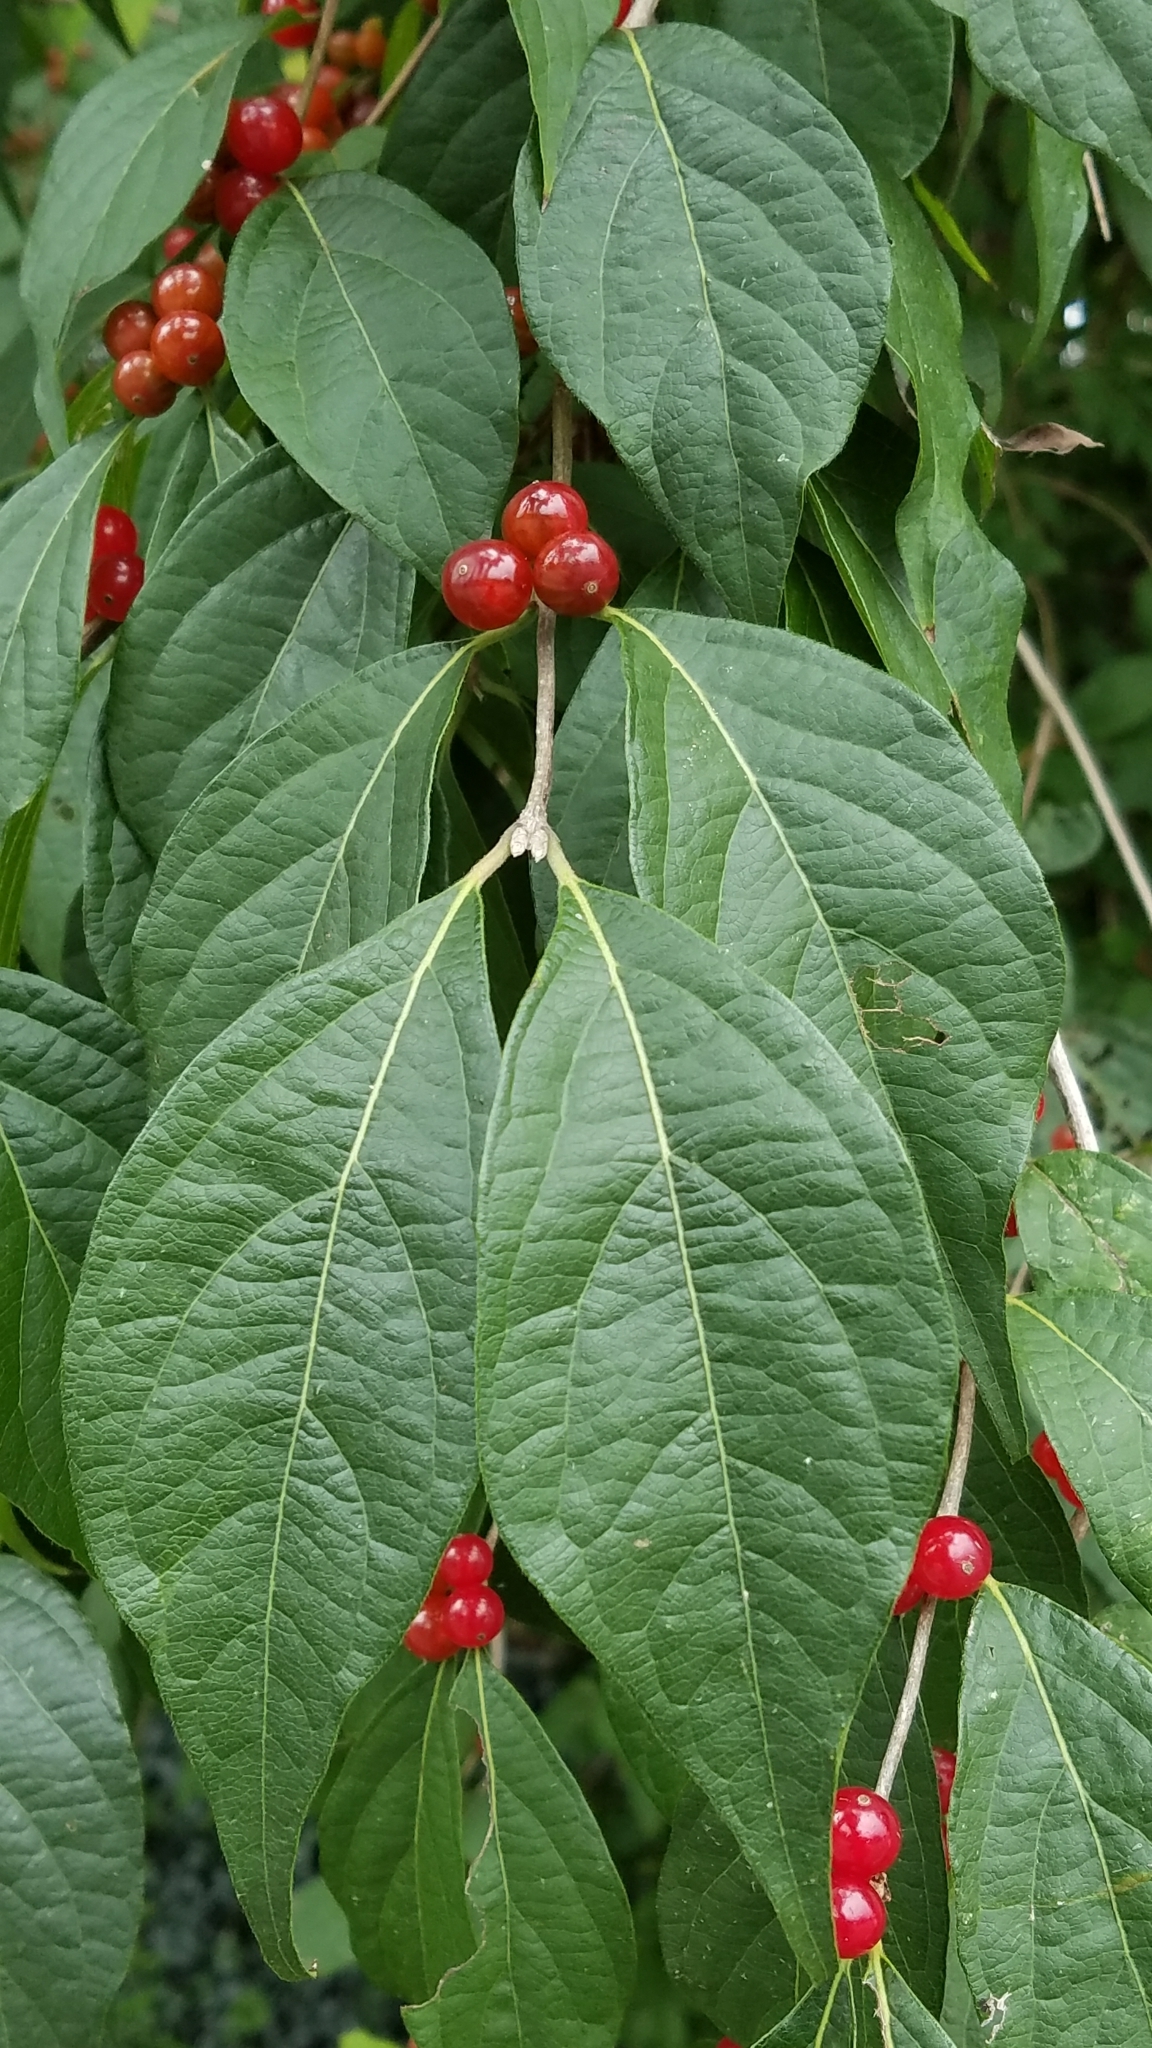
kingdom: Plantae
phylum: Tracheophyta
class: Magnoliopsida
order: Dipsacales
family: Caprifoliaceae
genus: Lonicera
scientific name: Lonicera maackii
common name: Amur honeysuckle
